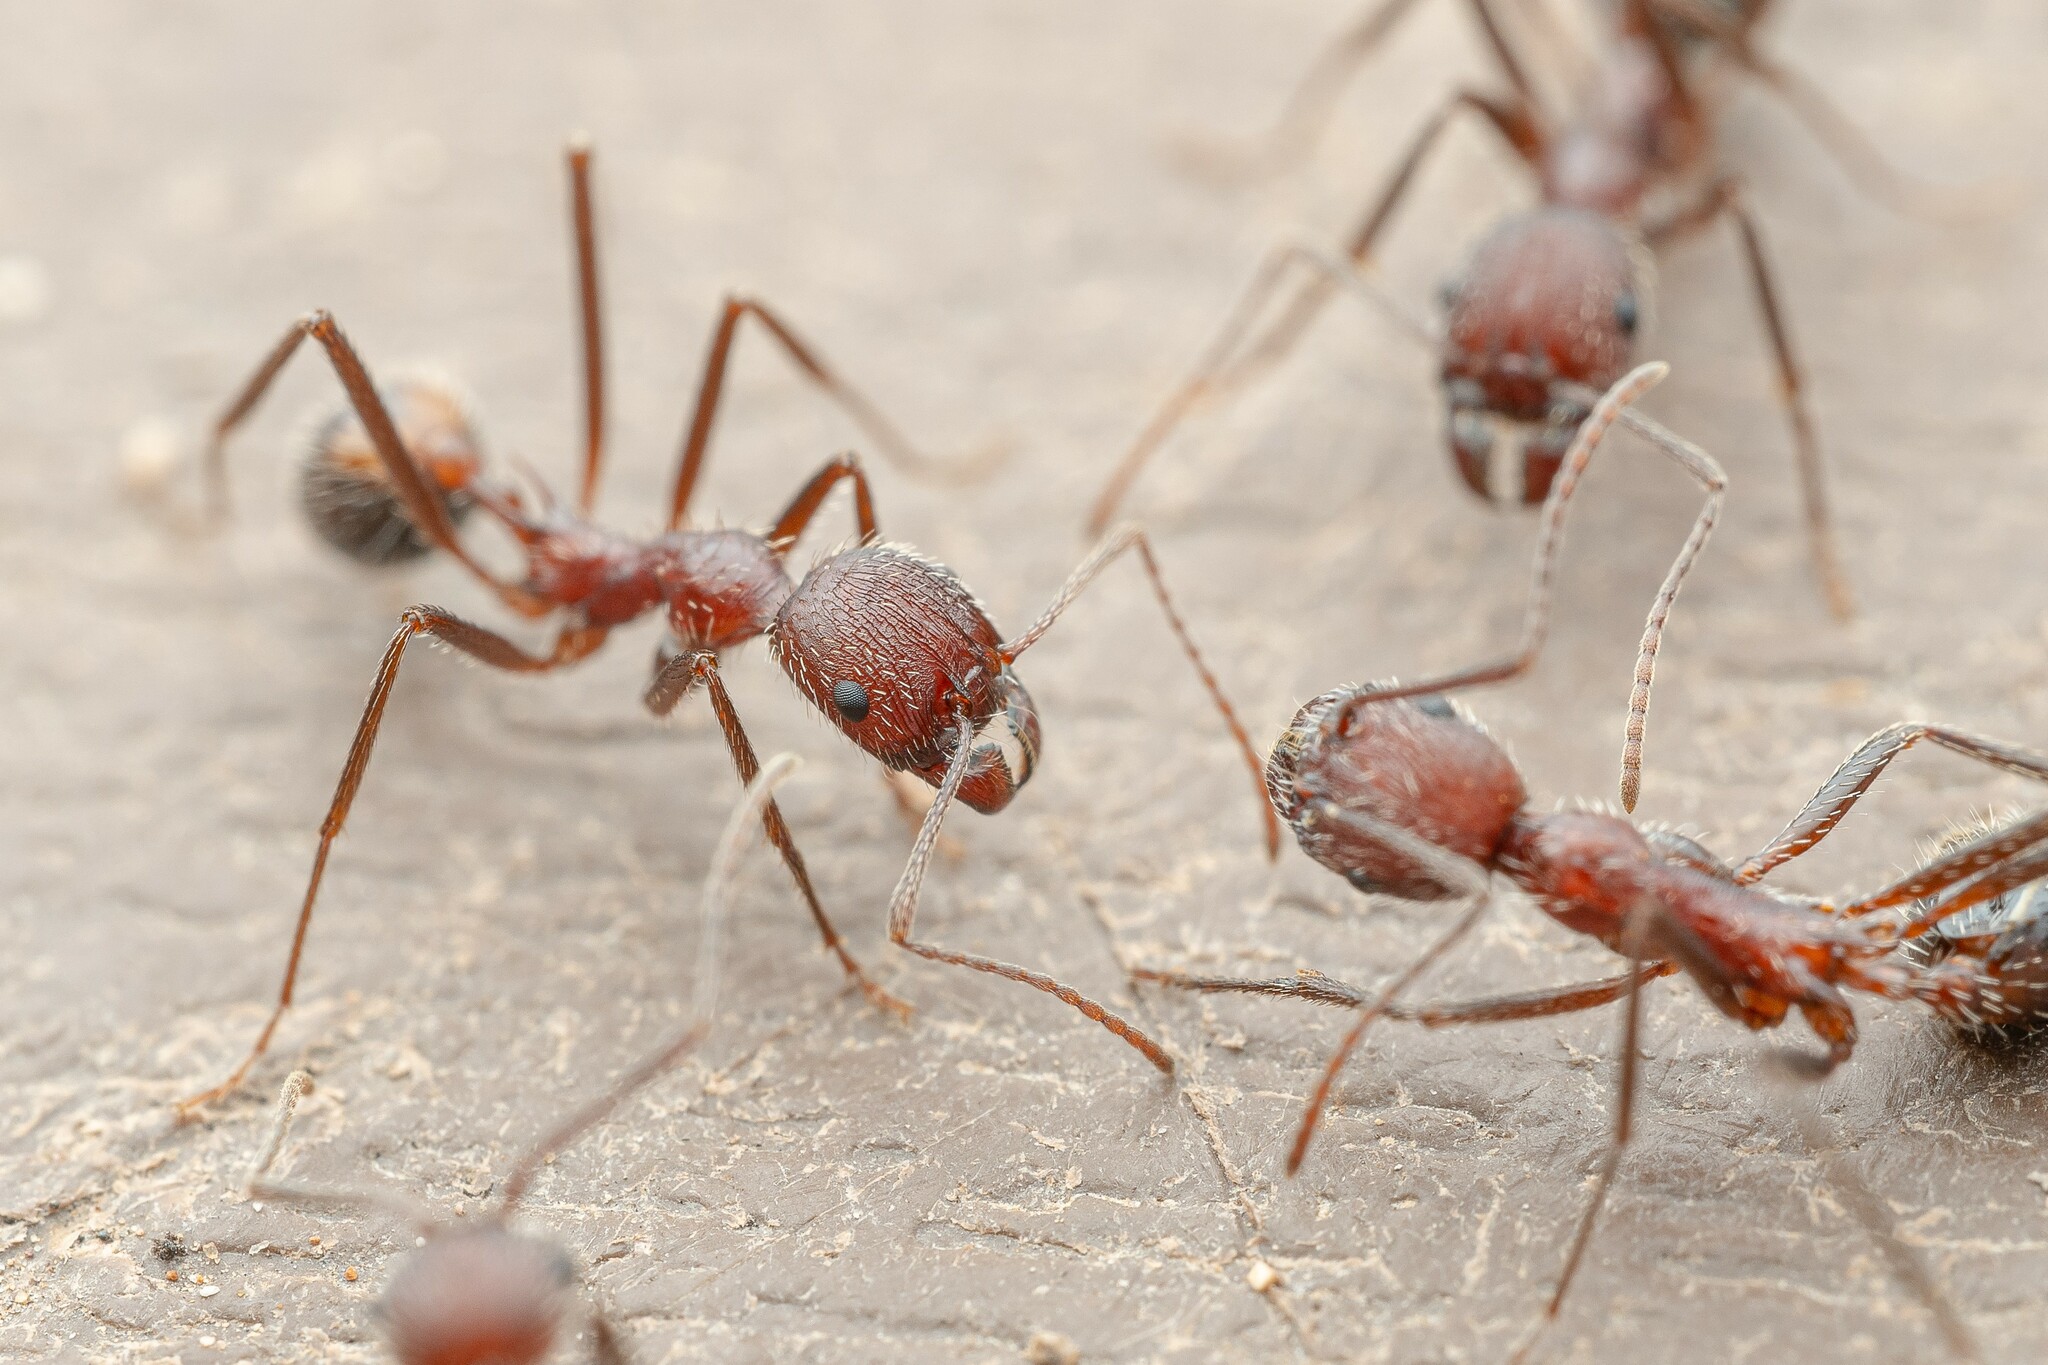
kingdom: Animalia
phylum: Arthropoda
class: Insecta
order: Hymenoptera
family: Formicidae
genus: Novomessor
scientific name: Novomessor albisetosa
